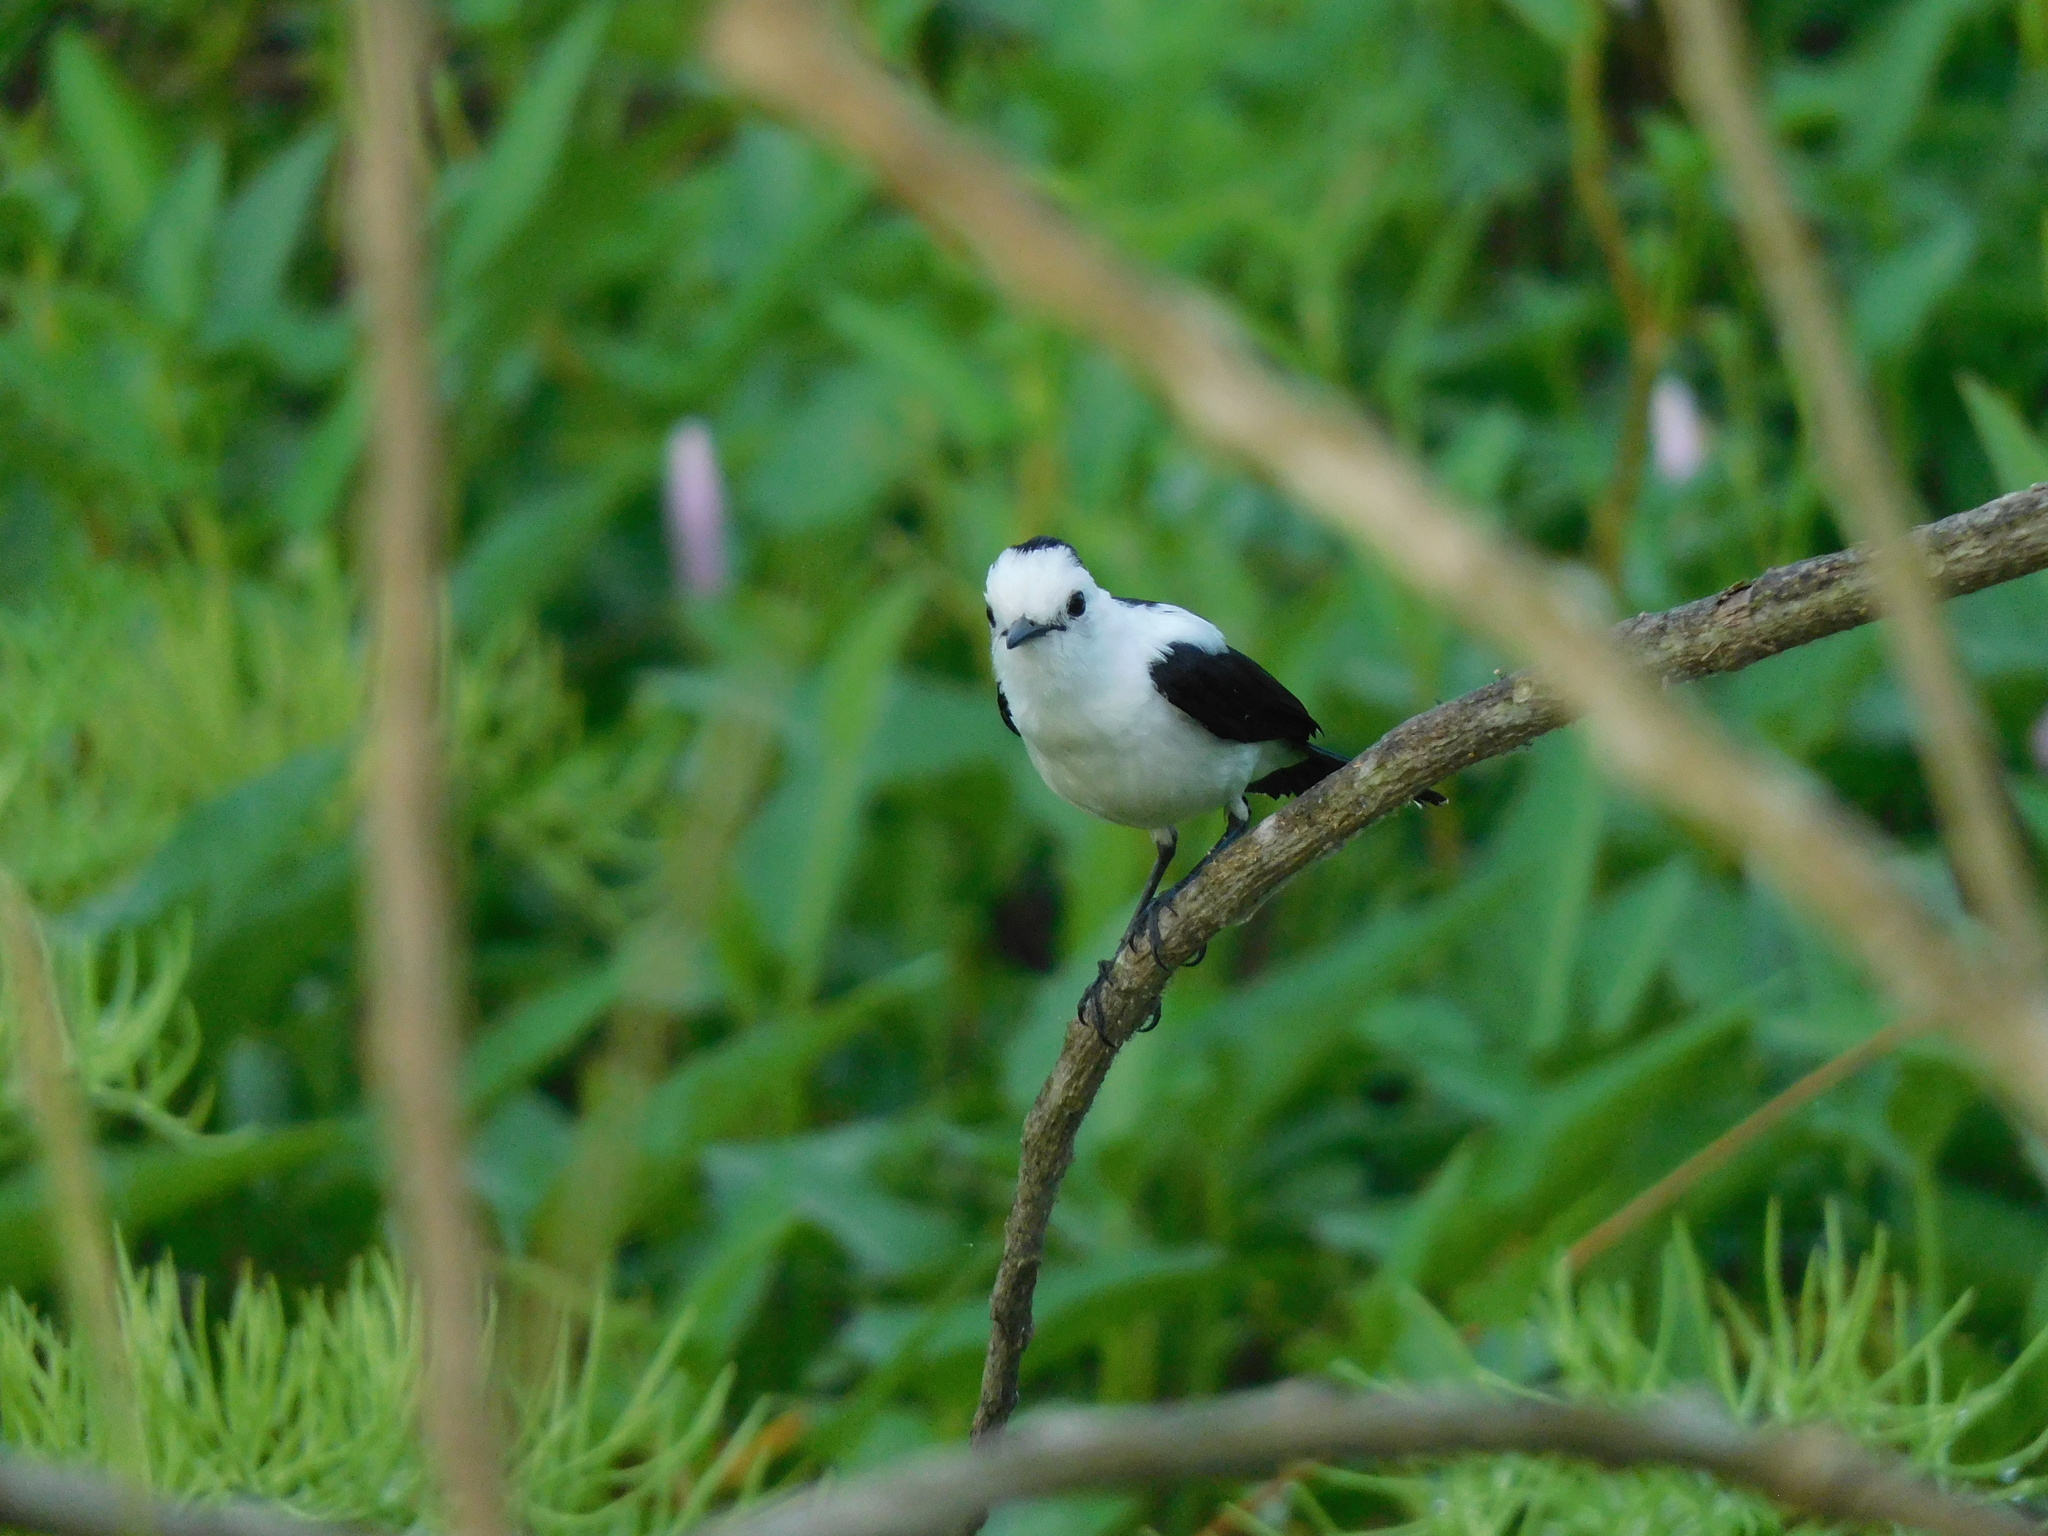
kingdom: Animalia
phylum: Chordata
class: Aves
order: Passeriformes
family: Tyrannidae
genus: Fluvicola
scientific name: Fluvicola pica
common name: Pied water-tyrant
